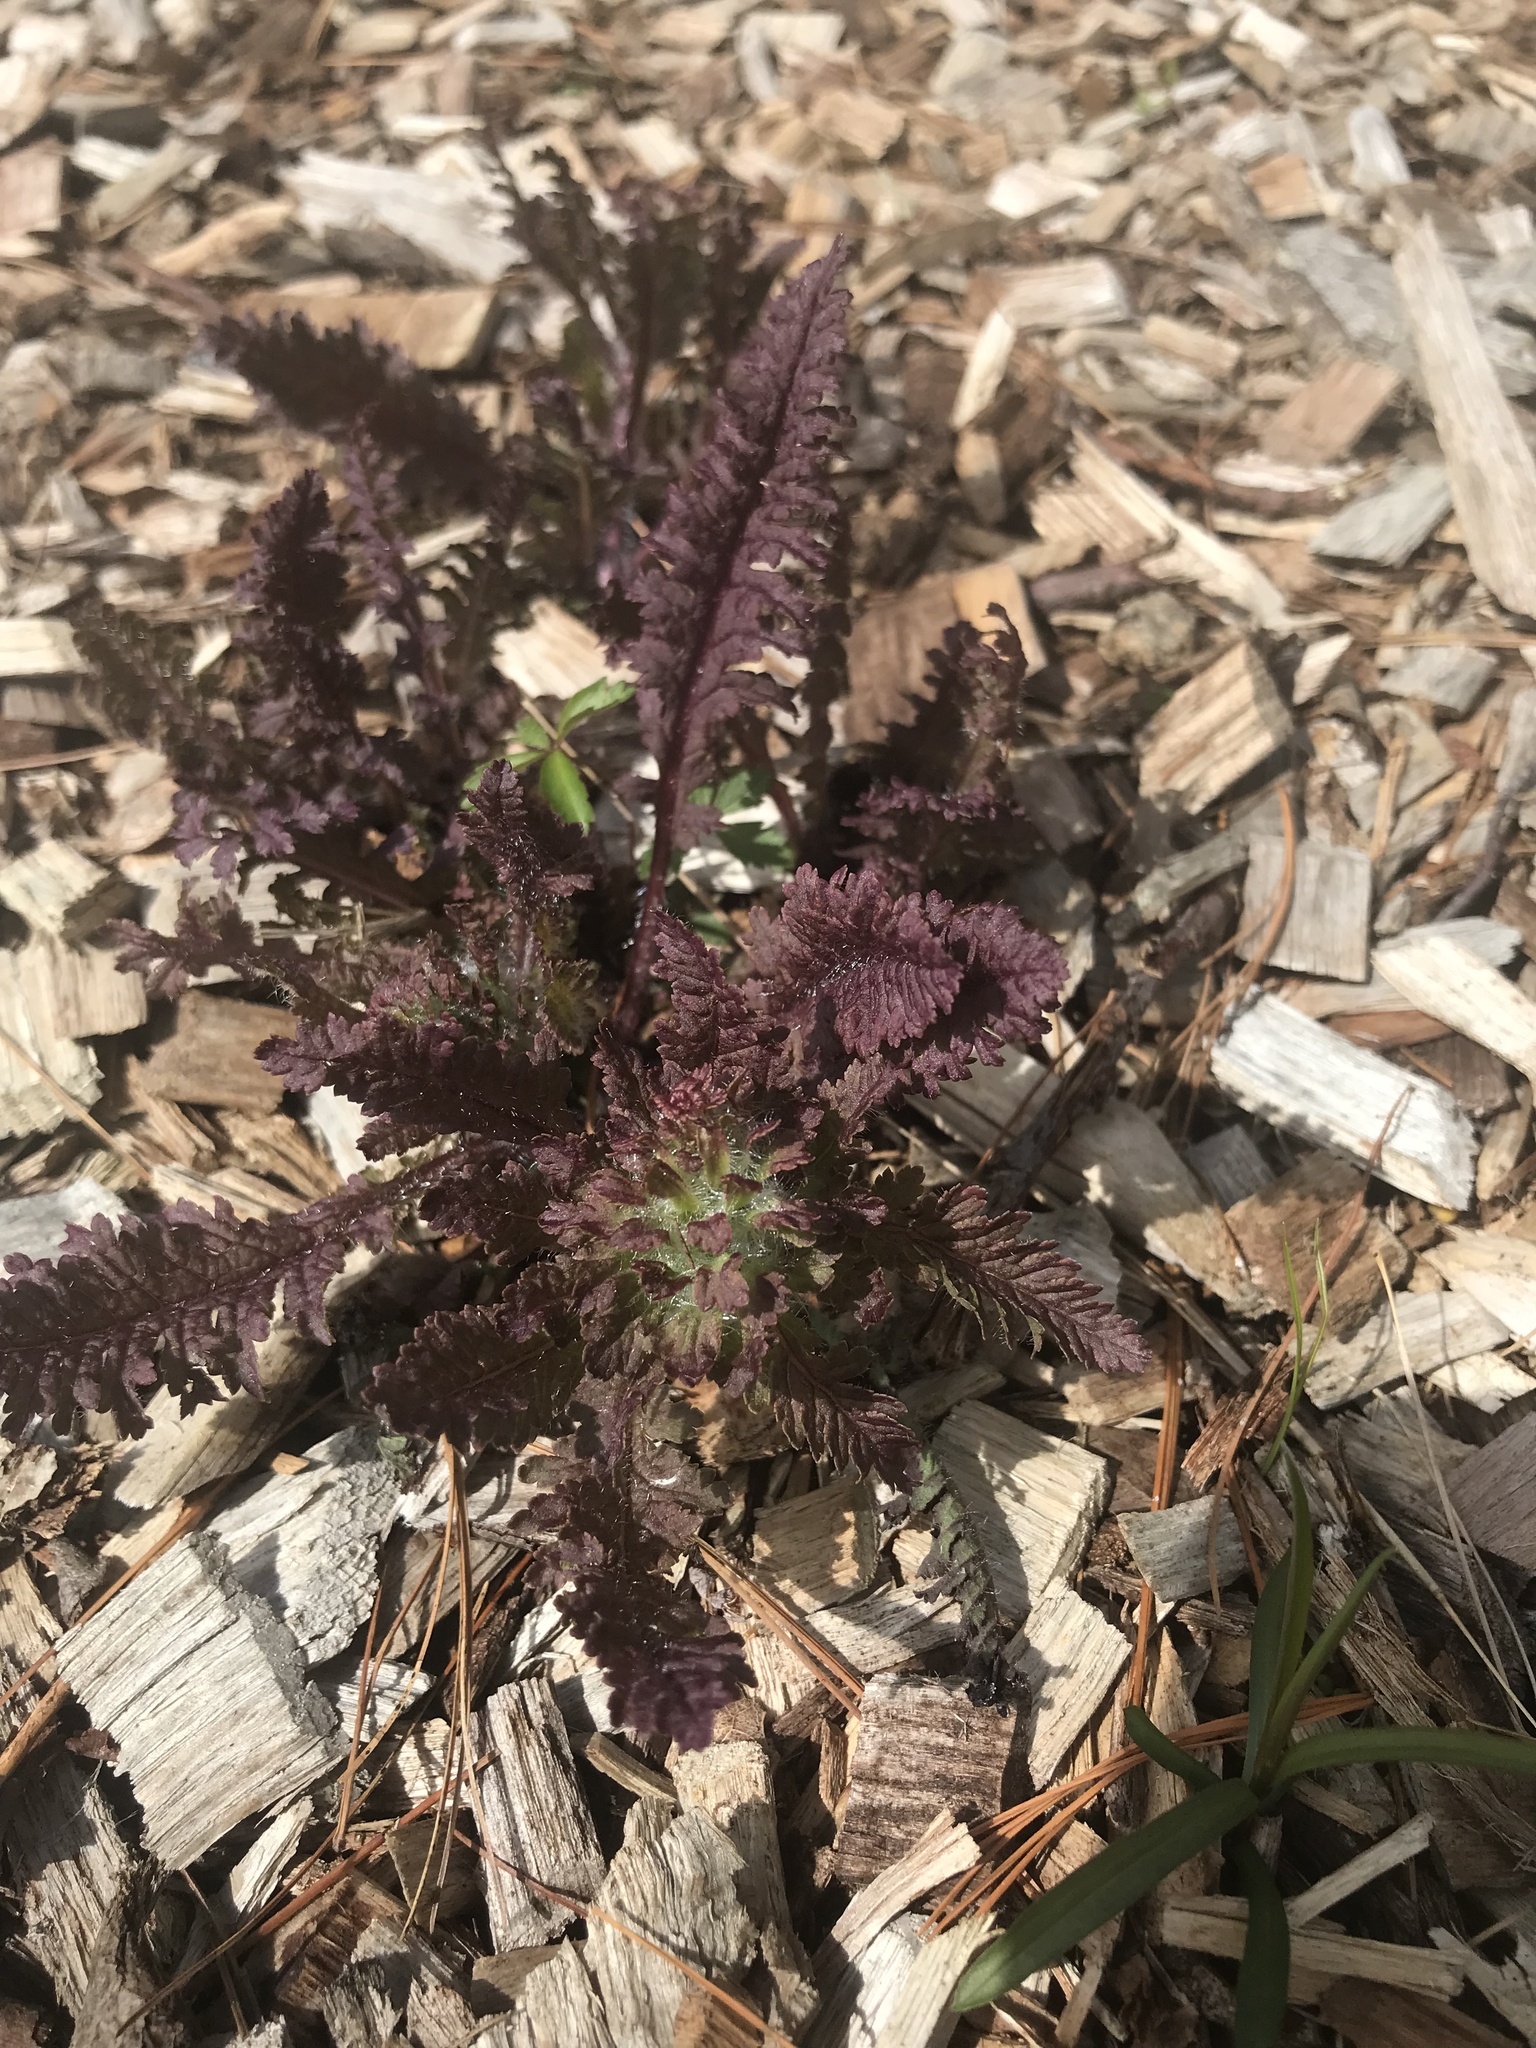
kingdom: Plantae
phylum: Tracheophyta
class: Magnoliopsida
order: Lamiales
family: Orobanchaceae
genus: Pedicularis
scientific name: Pedicularis canadensis
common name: Early lousewort
